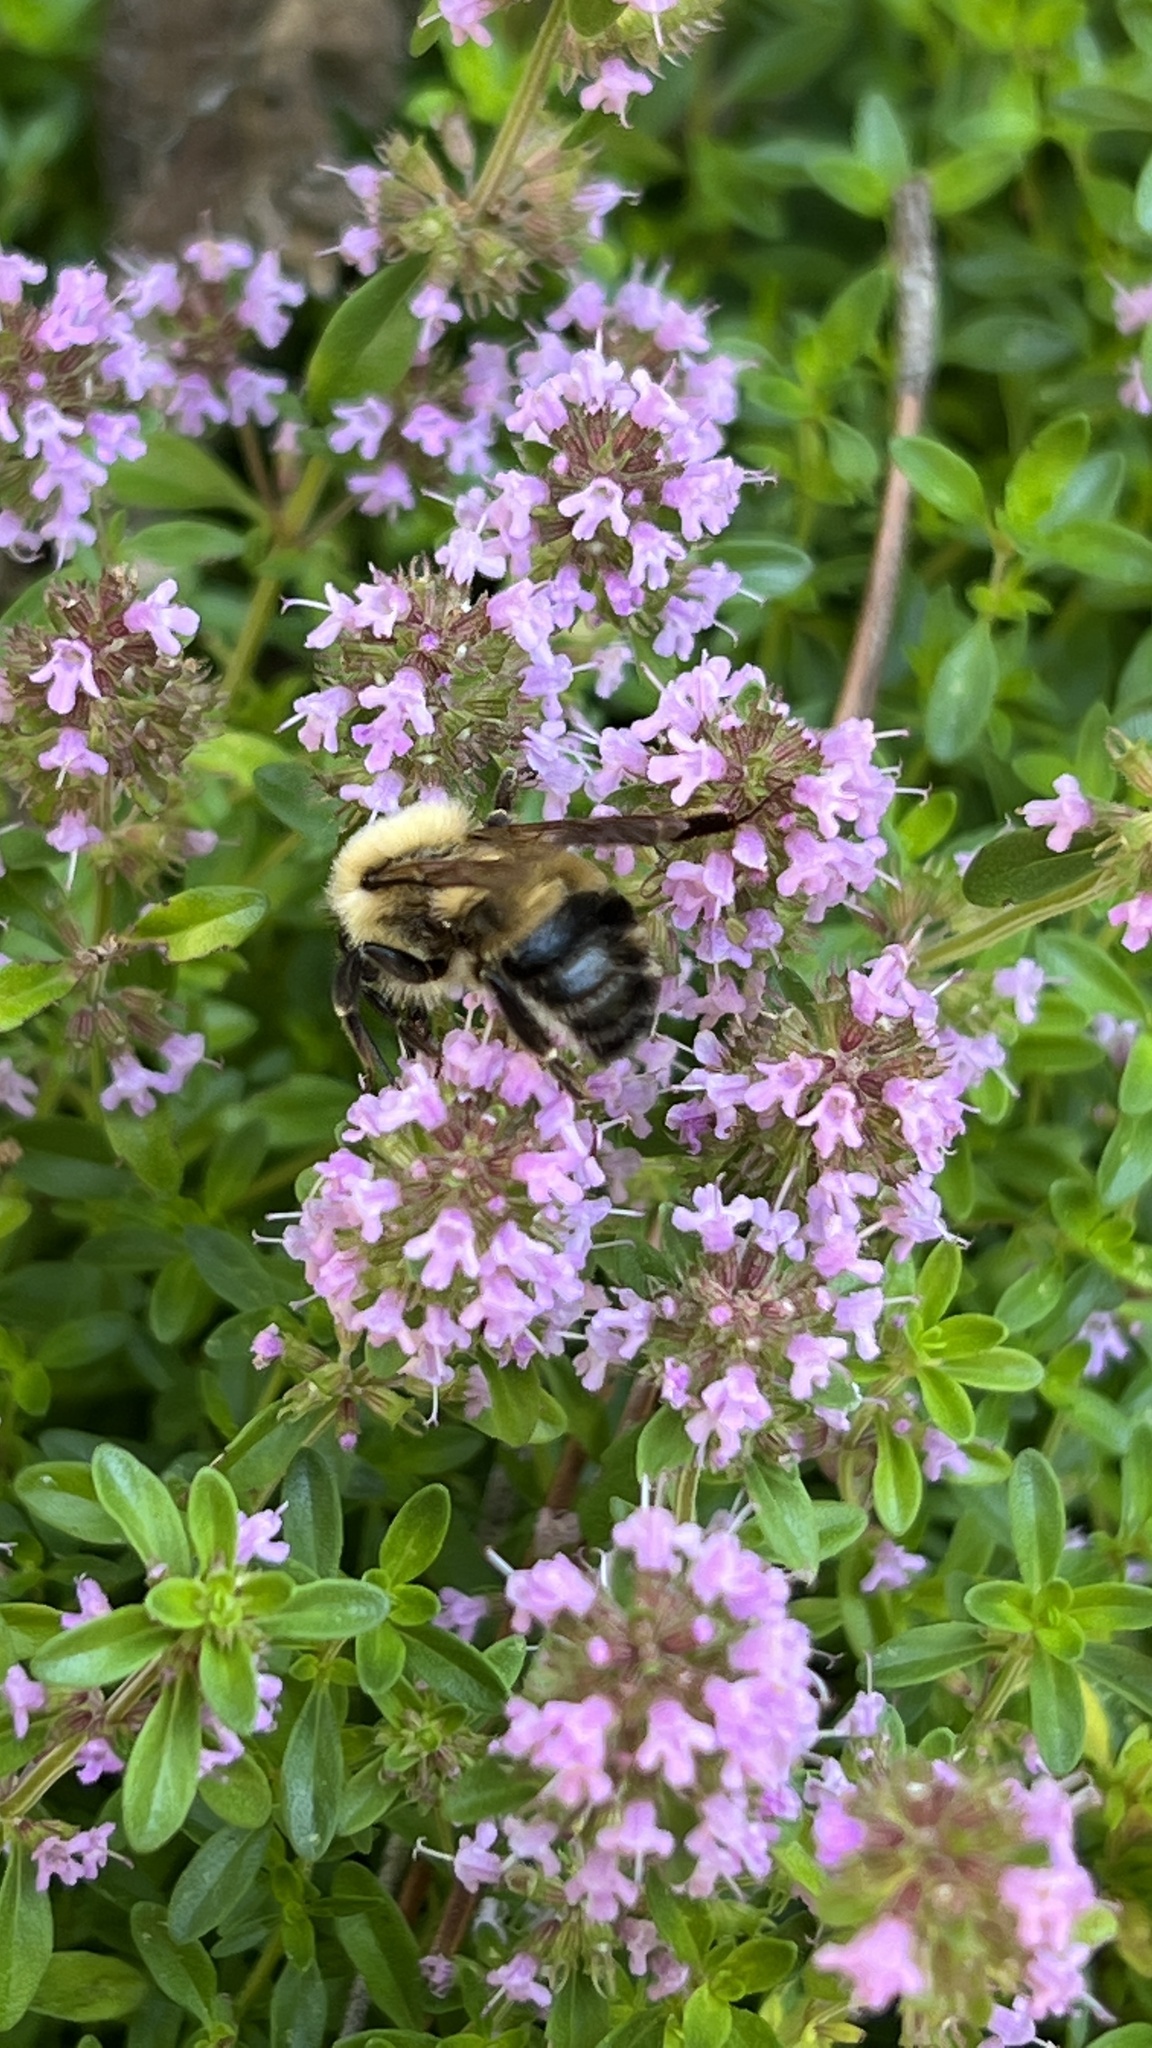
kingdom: Animalia
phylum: Arthropoda
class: Insecta
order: Hymenoptera
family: Apidae
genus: Bombus
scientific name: Bombus bimaculatus
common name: Two-spotted bumble bee
